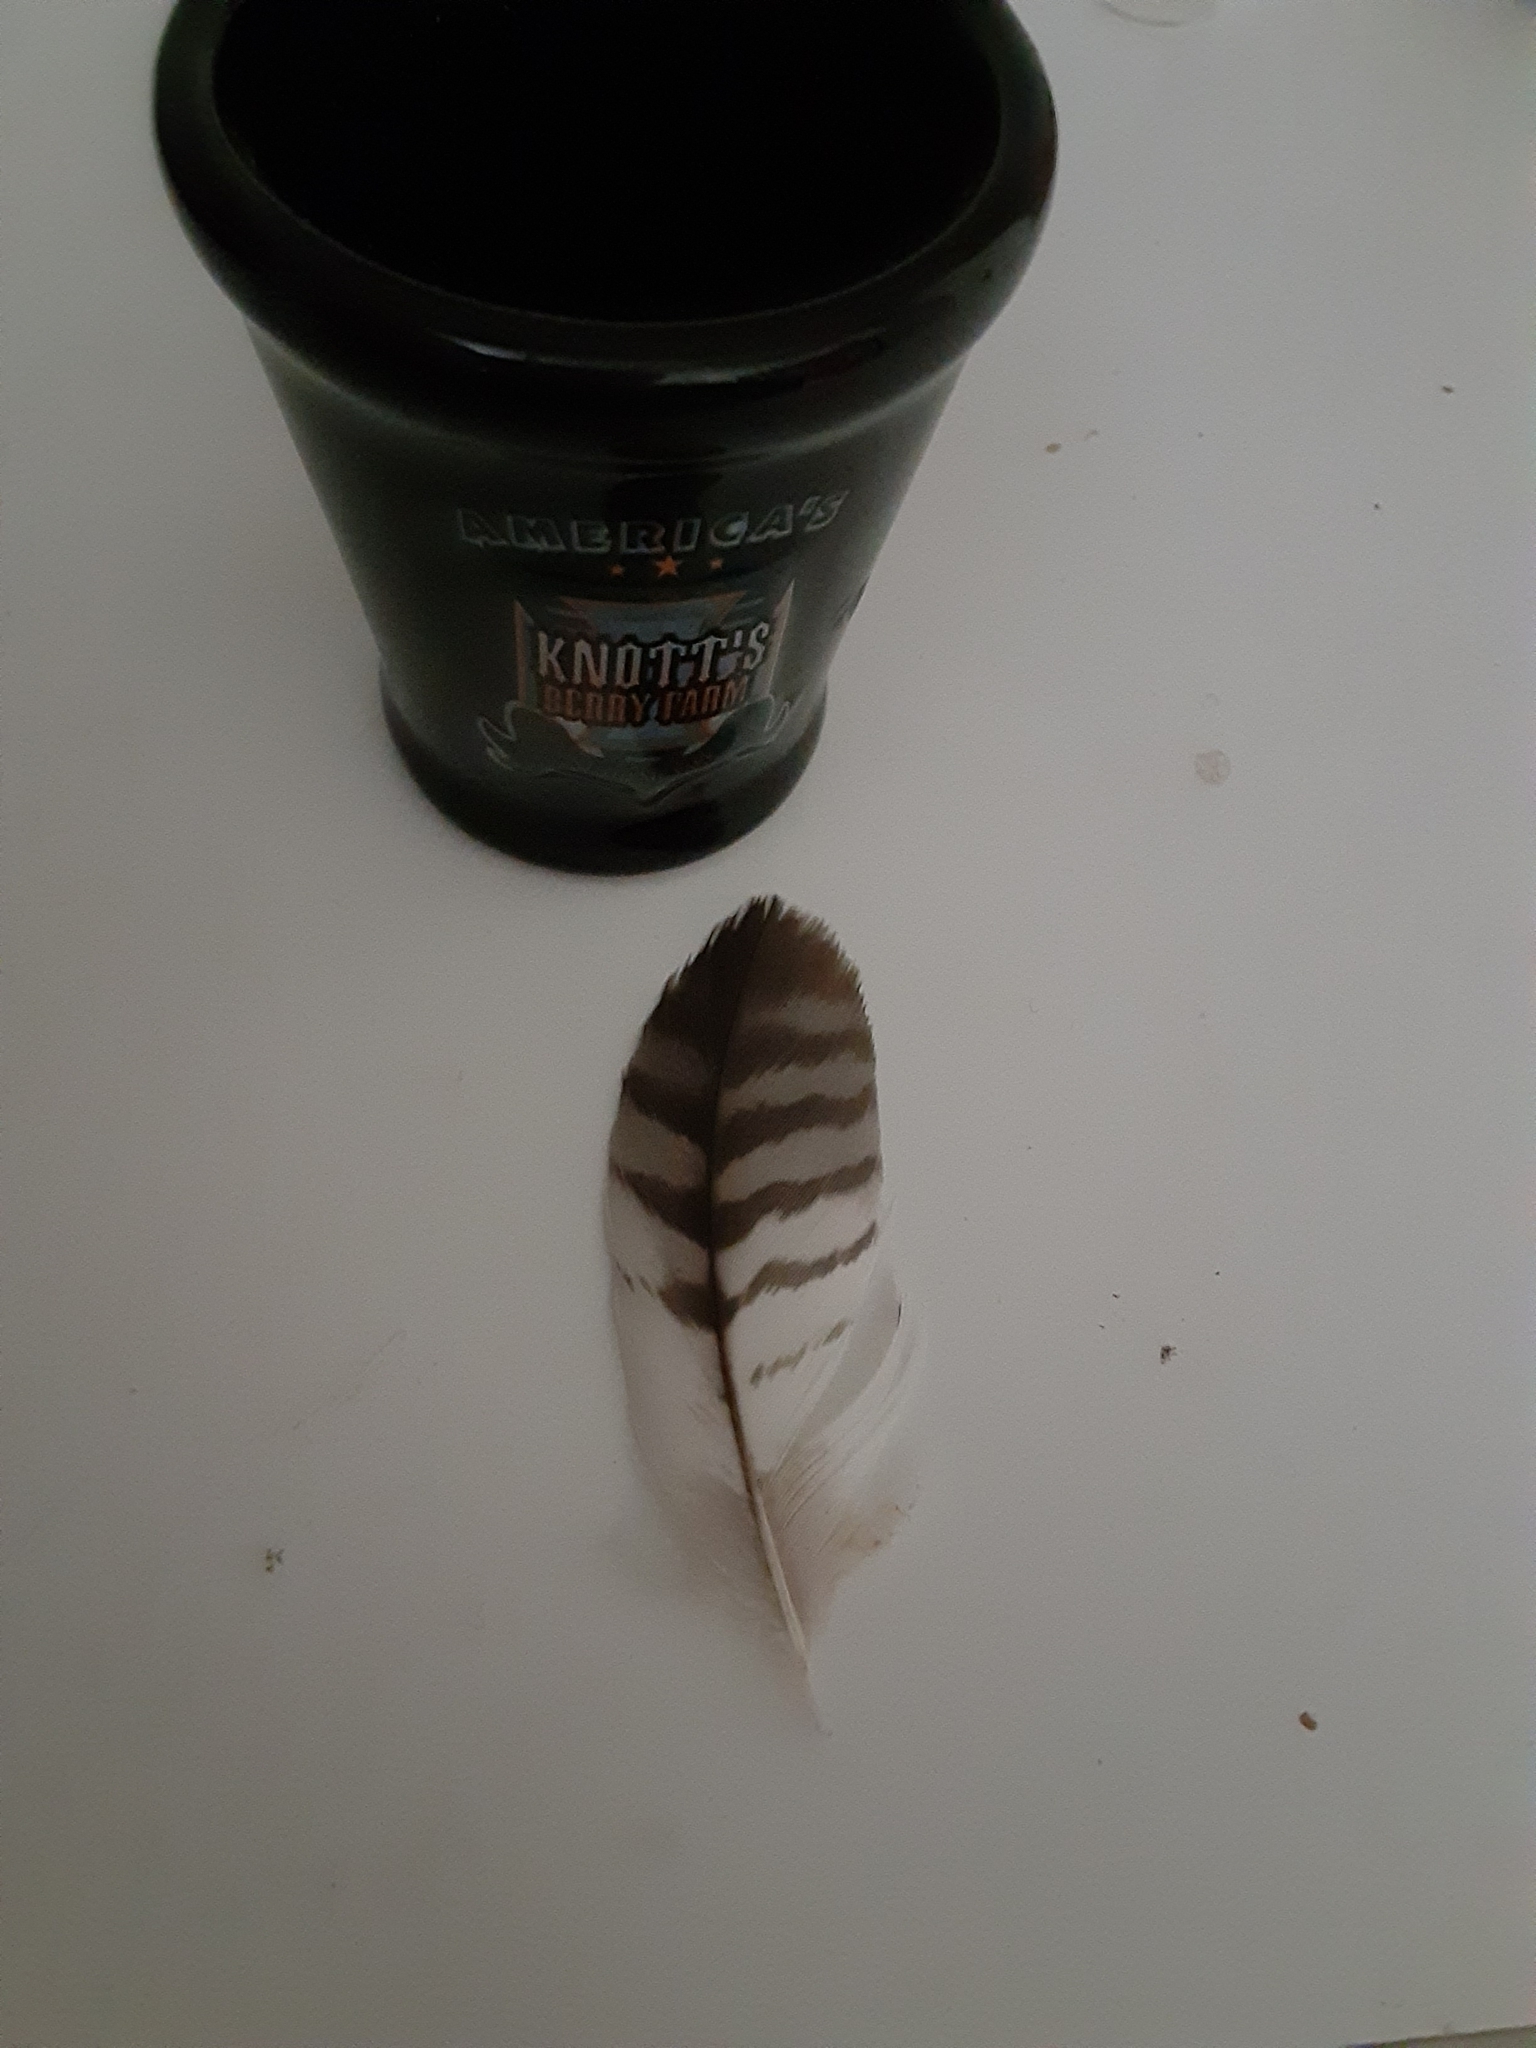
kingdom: Animalia
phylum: Chordata
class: Aves
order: Accipitriformes
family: Accipitridae
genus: Buteo
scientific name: Buteo jamaicensis
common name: Red-tailed hawk
